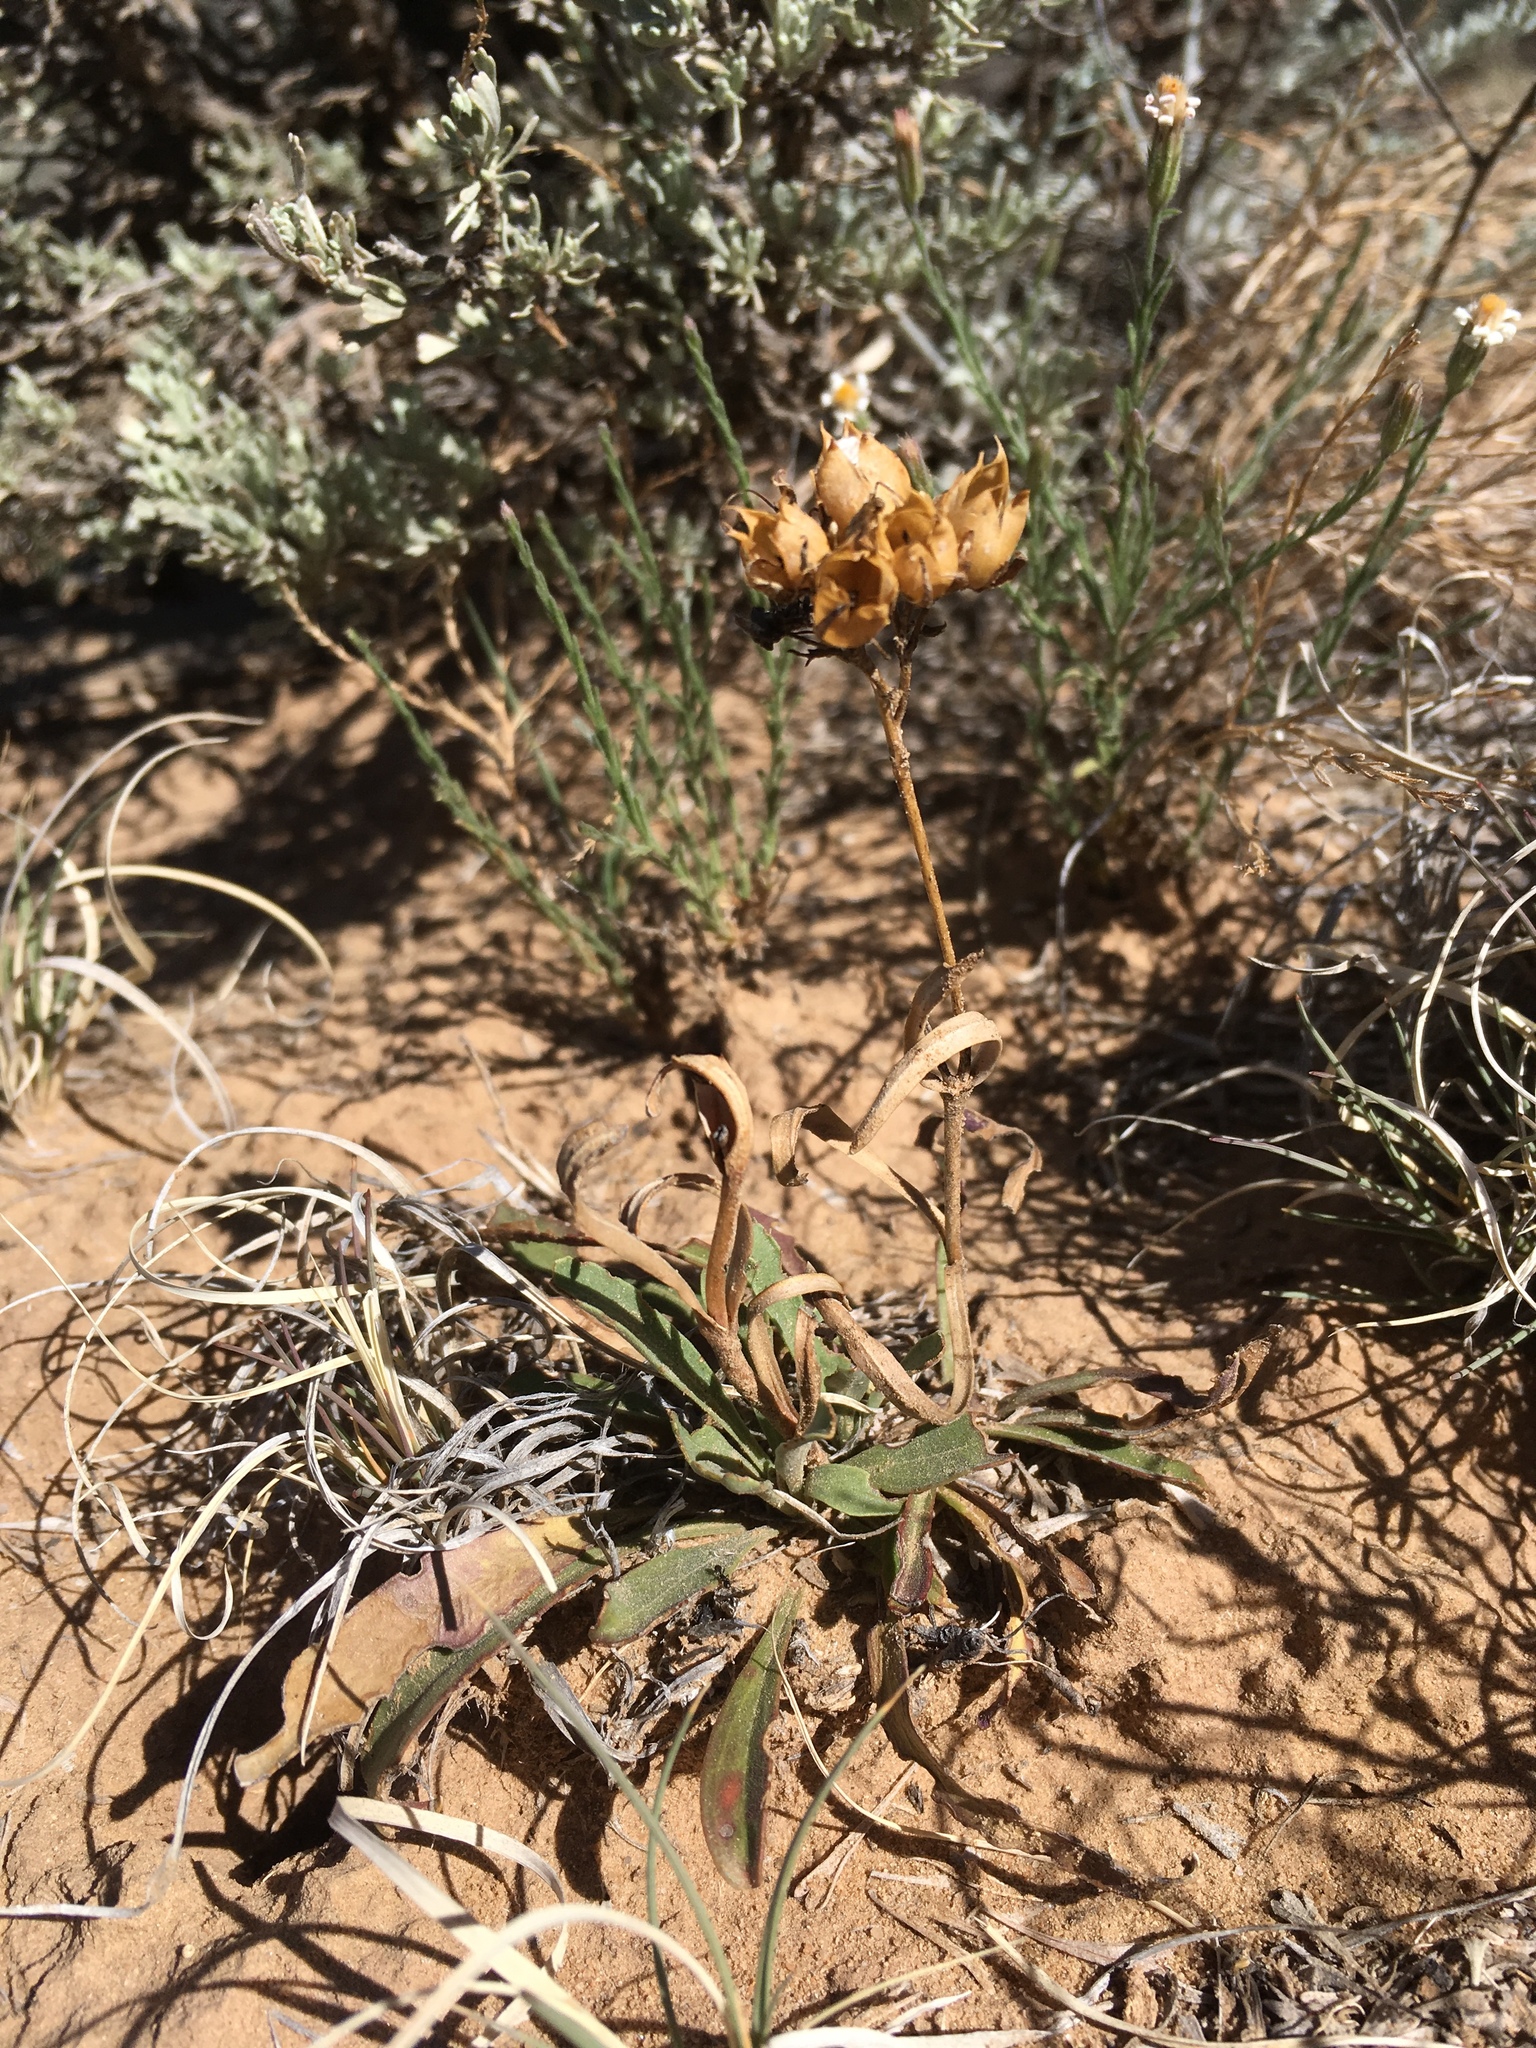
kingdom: Plantae
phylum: Tracheophyta
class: Magnoliopsida
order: Lamiales
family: Plantaginaceae
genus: Penstemon
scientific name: Penstemon breviculus
